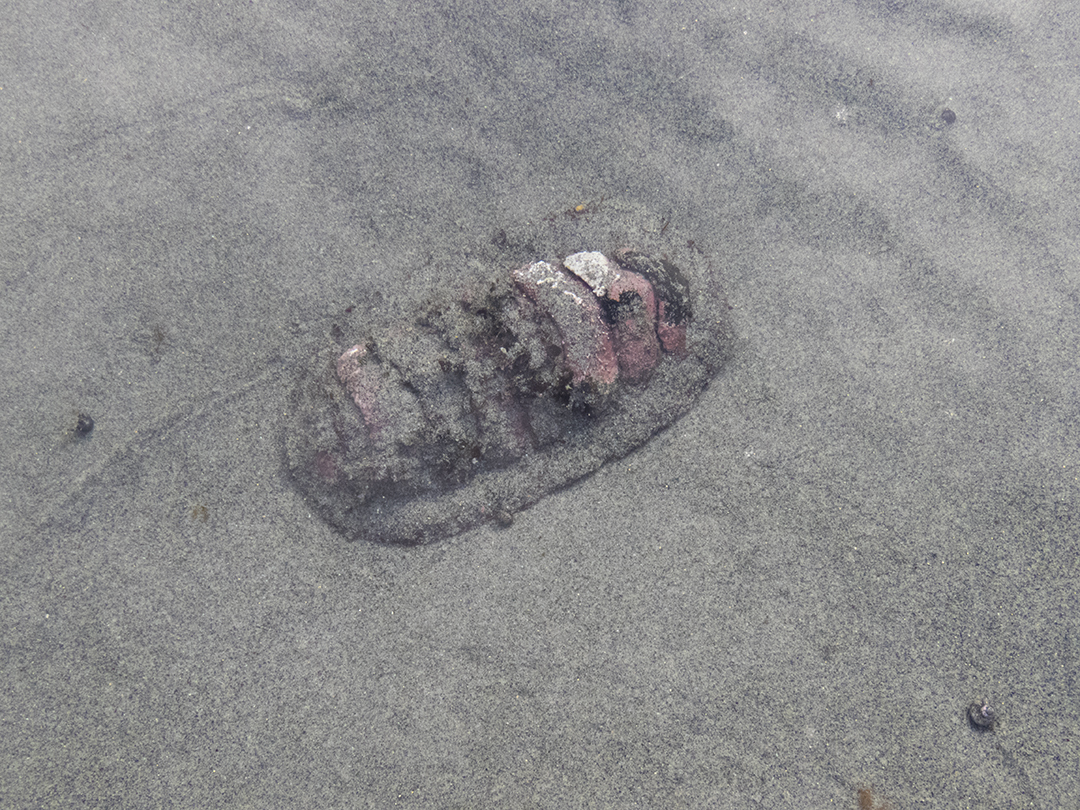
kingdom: Animalia
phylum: Mollusca
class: Polyplacophora
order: Callochitonida
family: Callochitonidae
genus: Eudoxochiton
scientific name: Eudoxochiton nobilis
